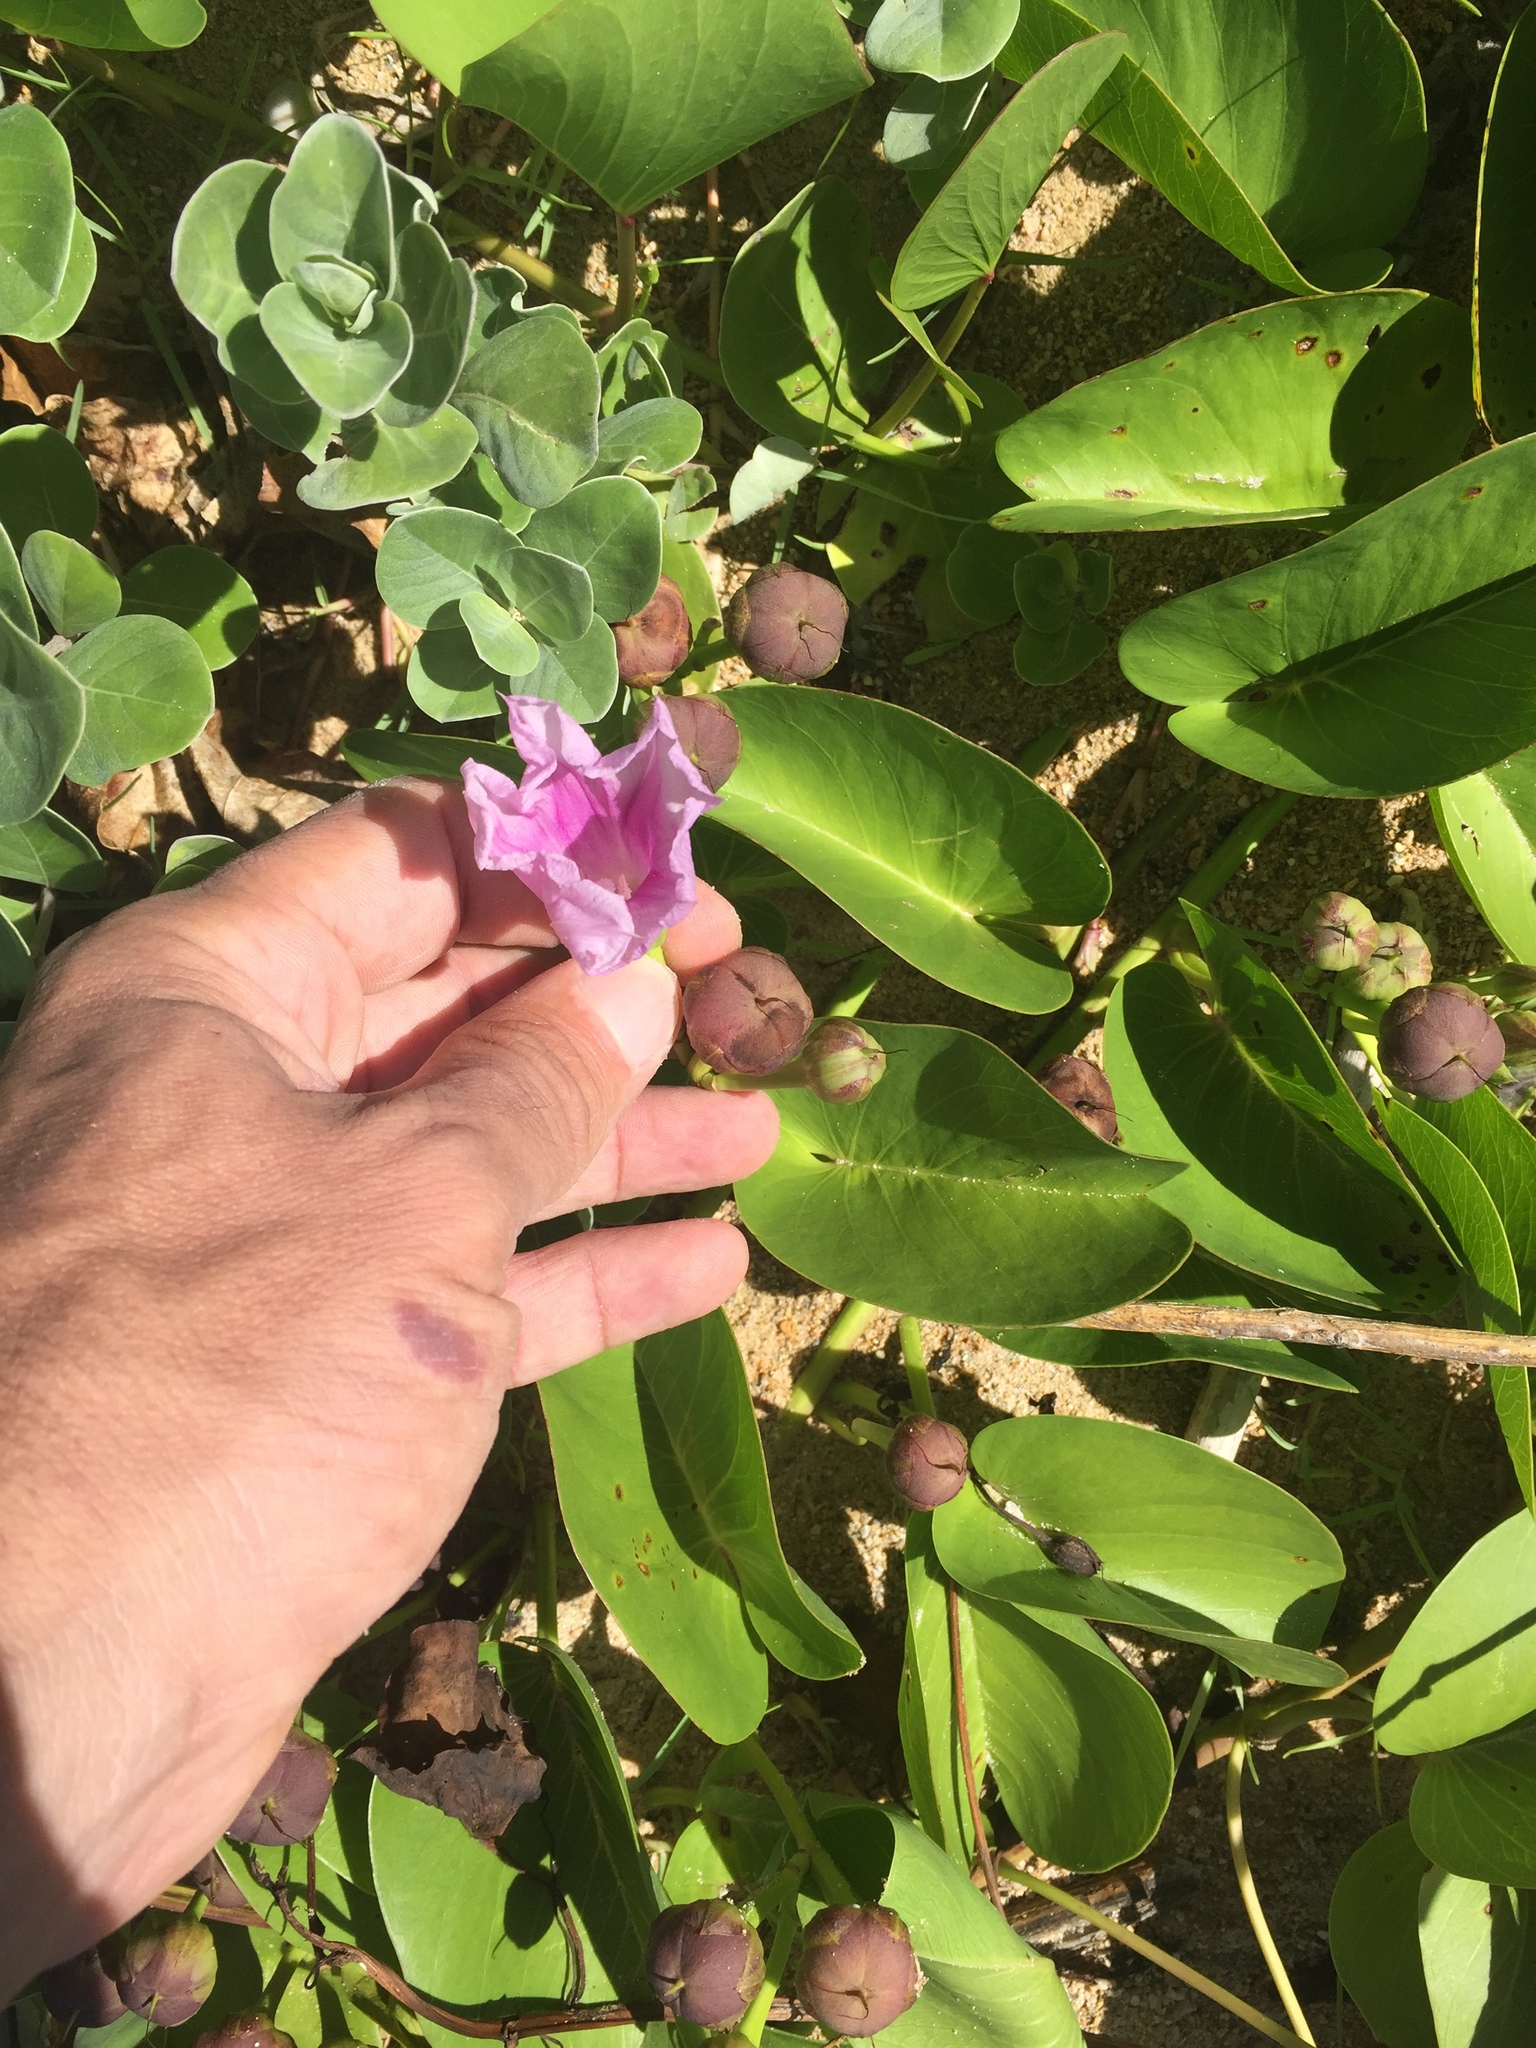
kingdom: Plantae
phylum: Tracheophyta
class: Magnoliopsida
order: Solanales
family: Convolvulaceae
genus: Ipomoea
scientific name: Ipomoea pes-caprae
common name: Beach morning glory
